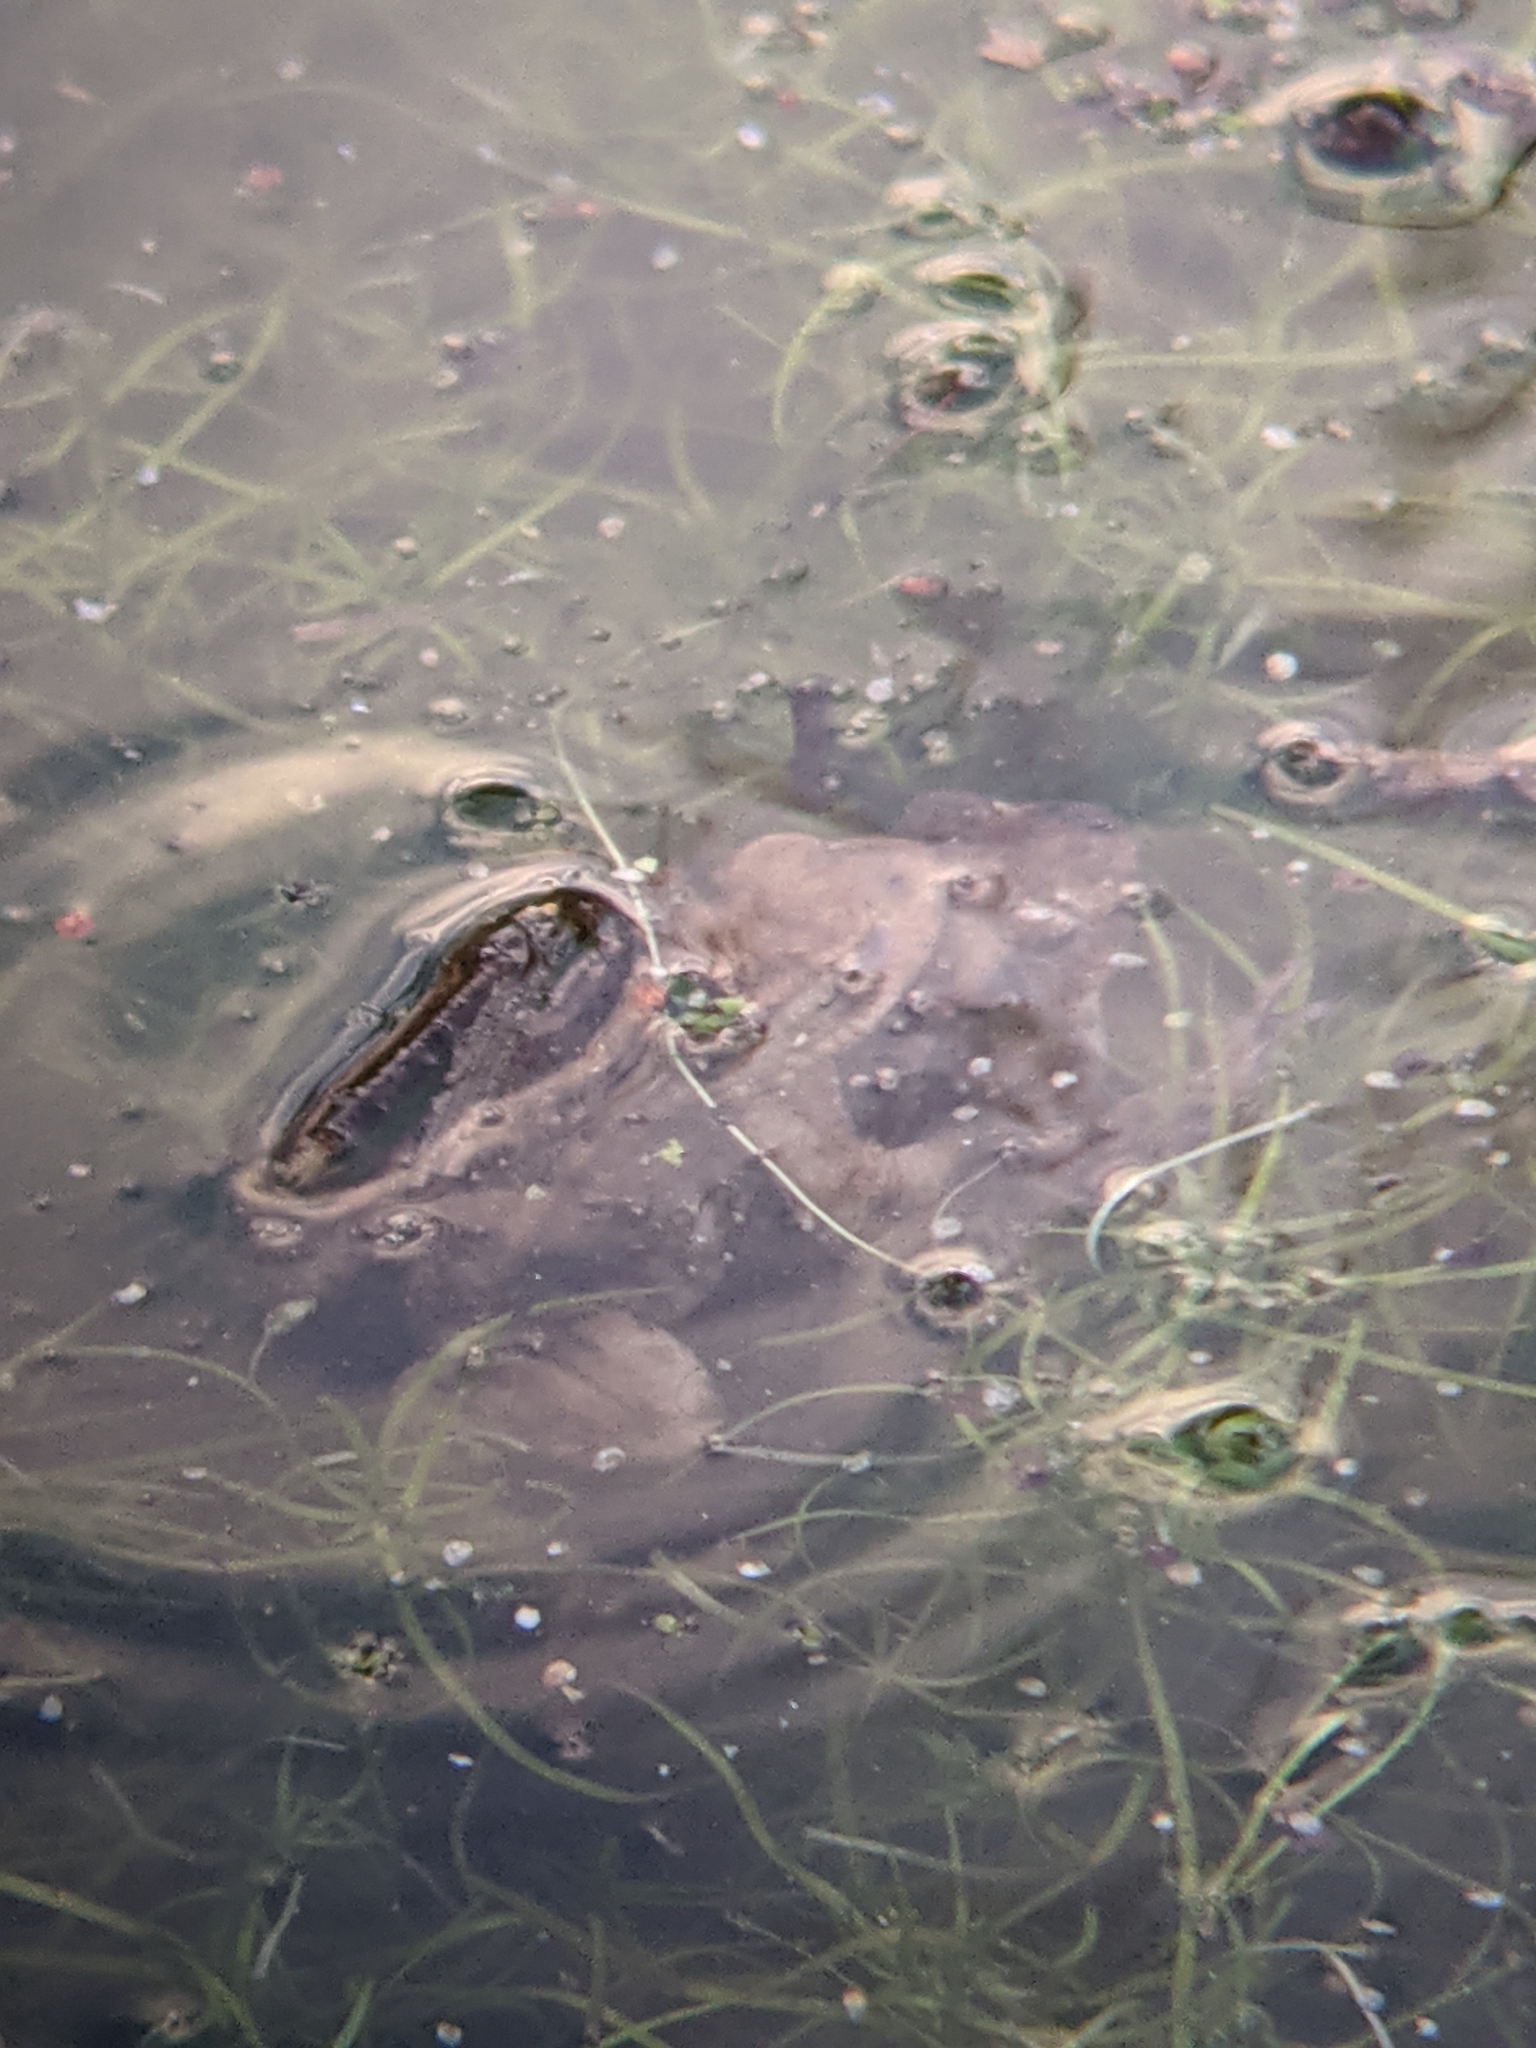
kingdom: Animalia
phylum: Chordata
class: Amphibia
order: Anura
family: Bufonidae
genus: Bufo
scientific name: Bufo bufo
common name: Common toad
